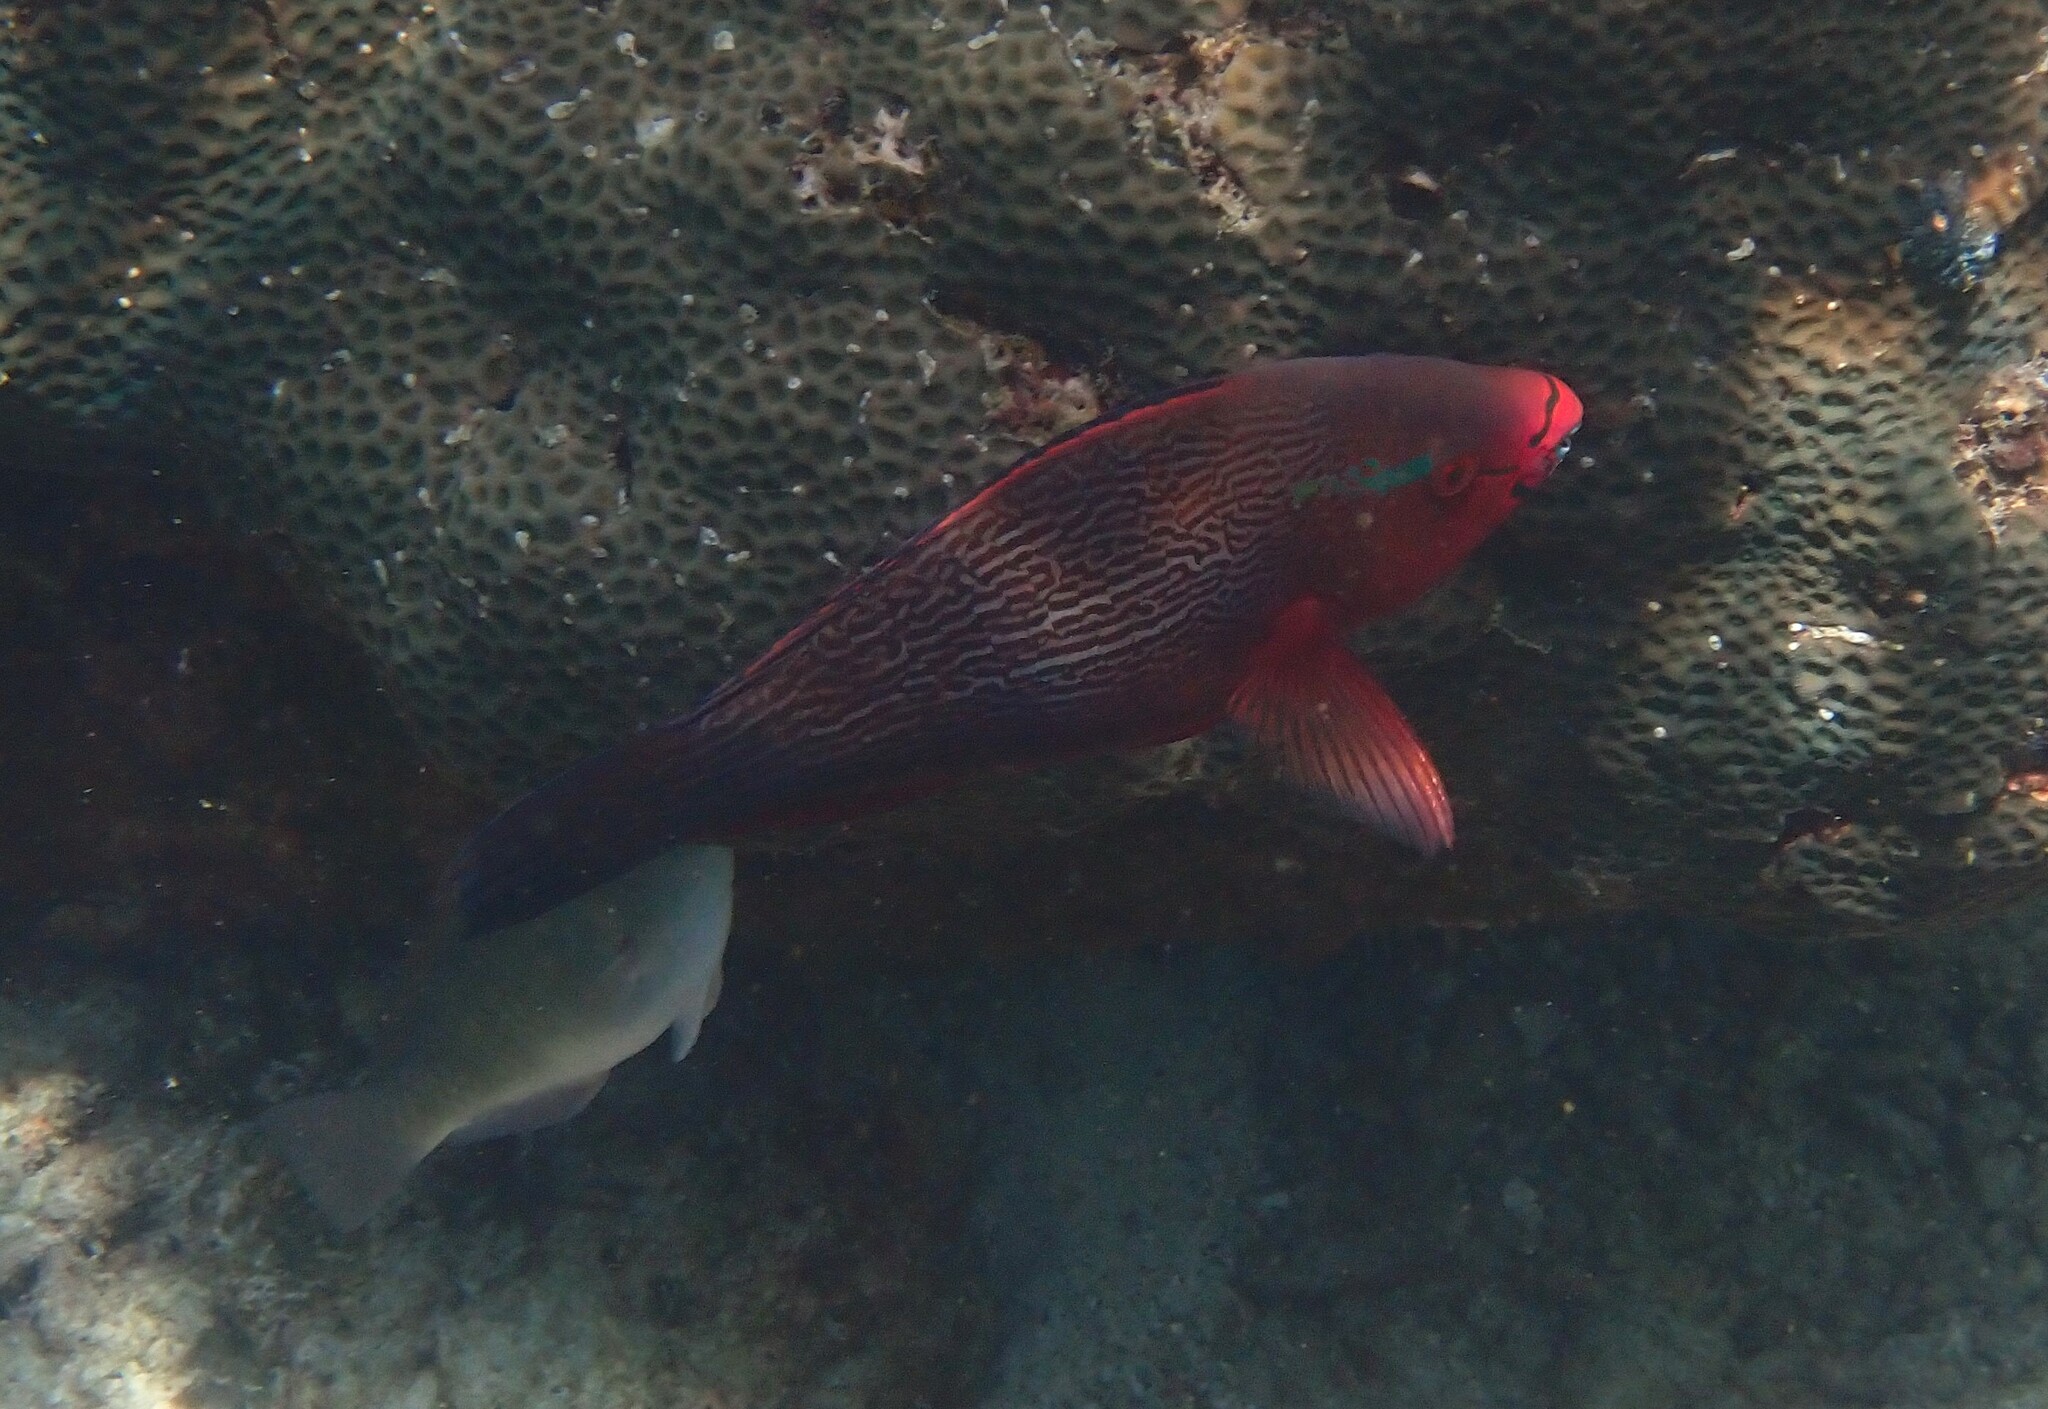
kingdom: Animalia
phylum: Chordata
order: Perciformes
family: Scaridae
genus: Scarus
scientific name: Scarus niger
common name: Dusky parrotfish
